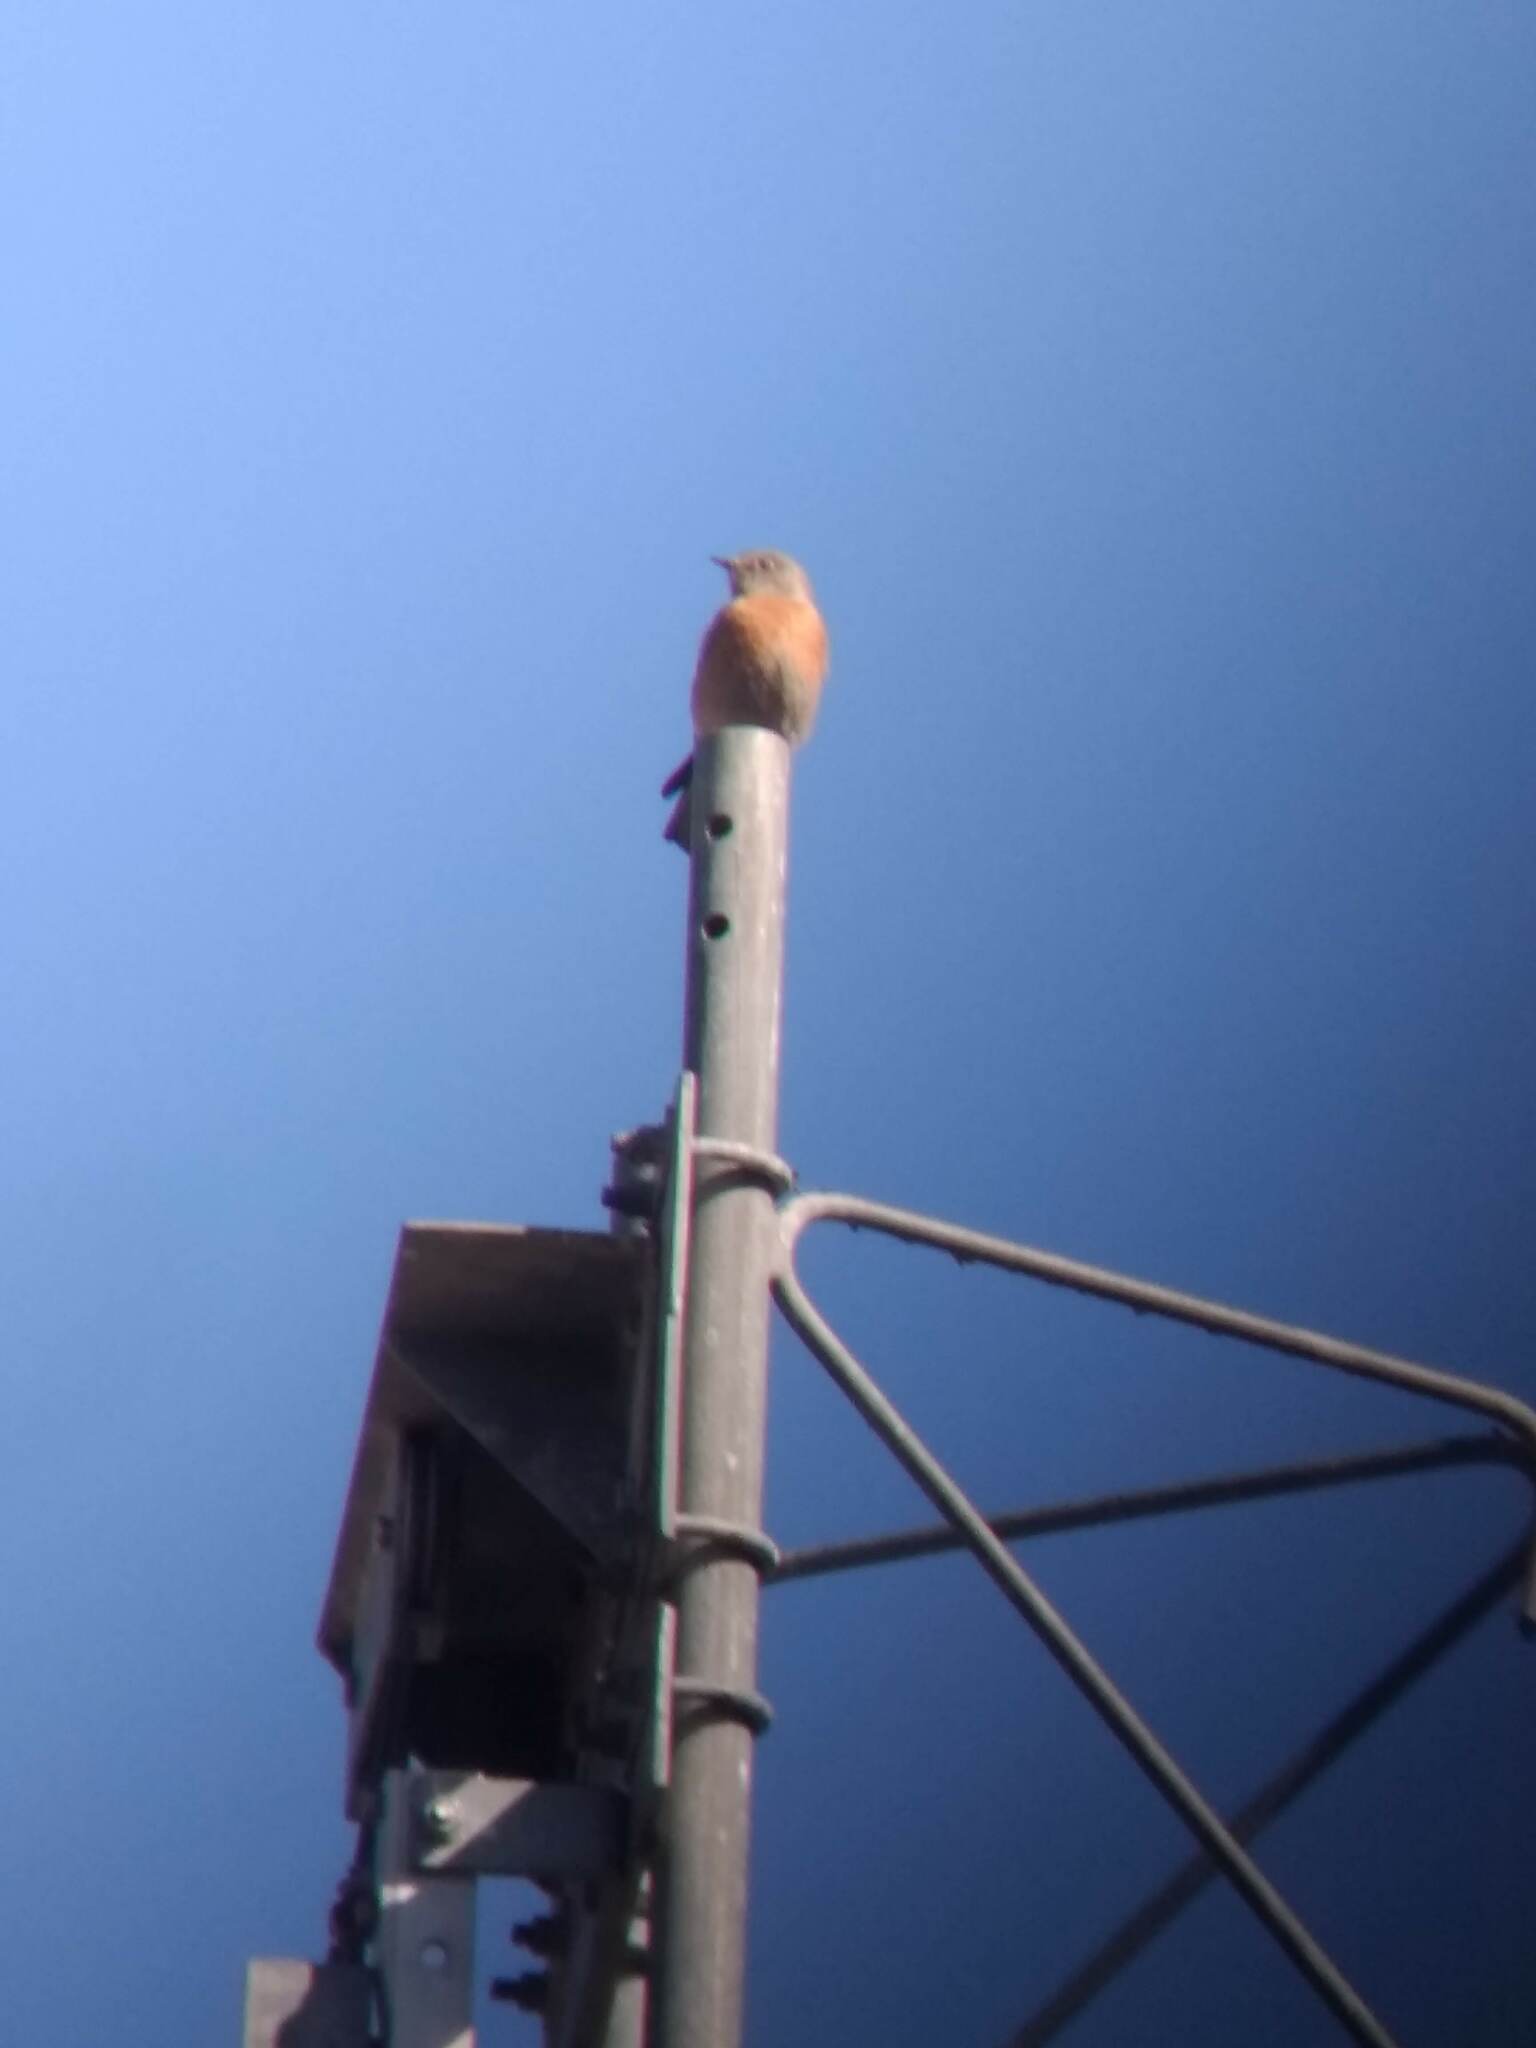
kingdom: Animalia
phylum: Chordata
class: Aves
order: Passeriformes
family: Turdidae
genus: Sialia
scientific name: Sialia mexicana
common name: Western bluebird
